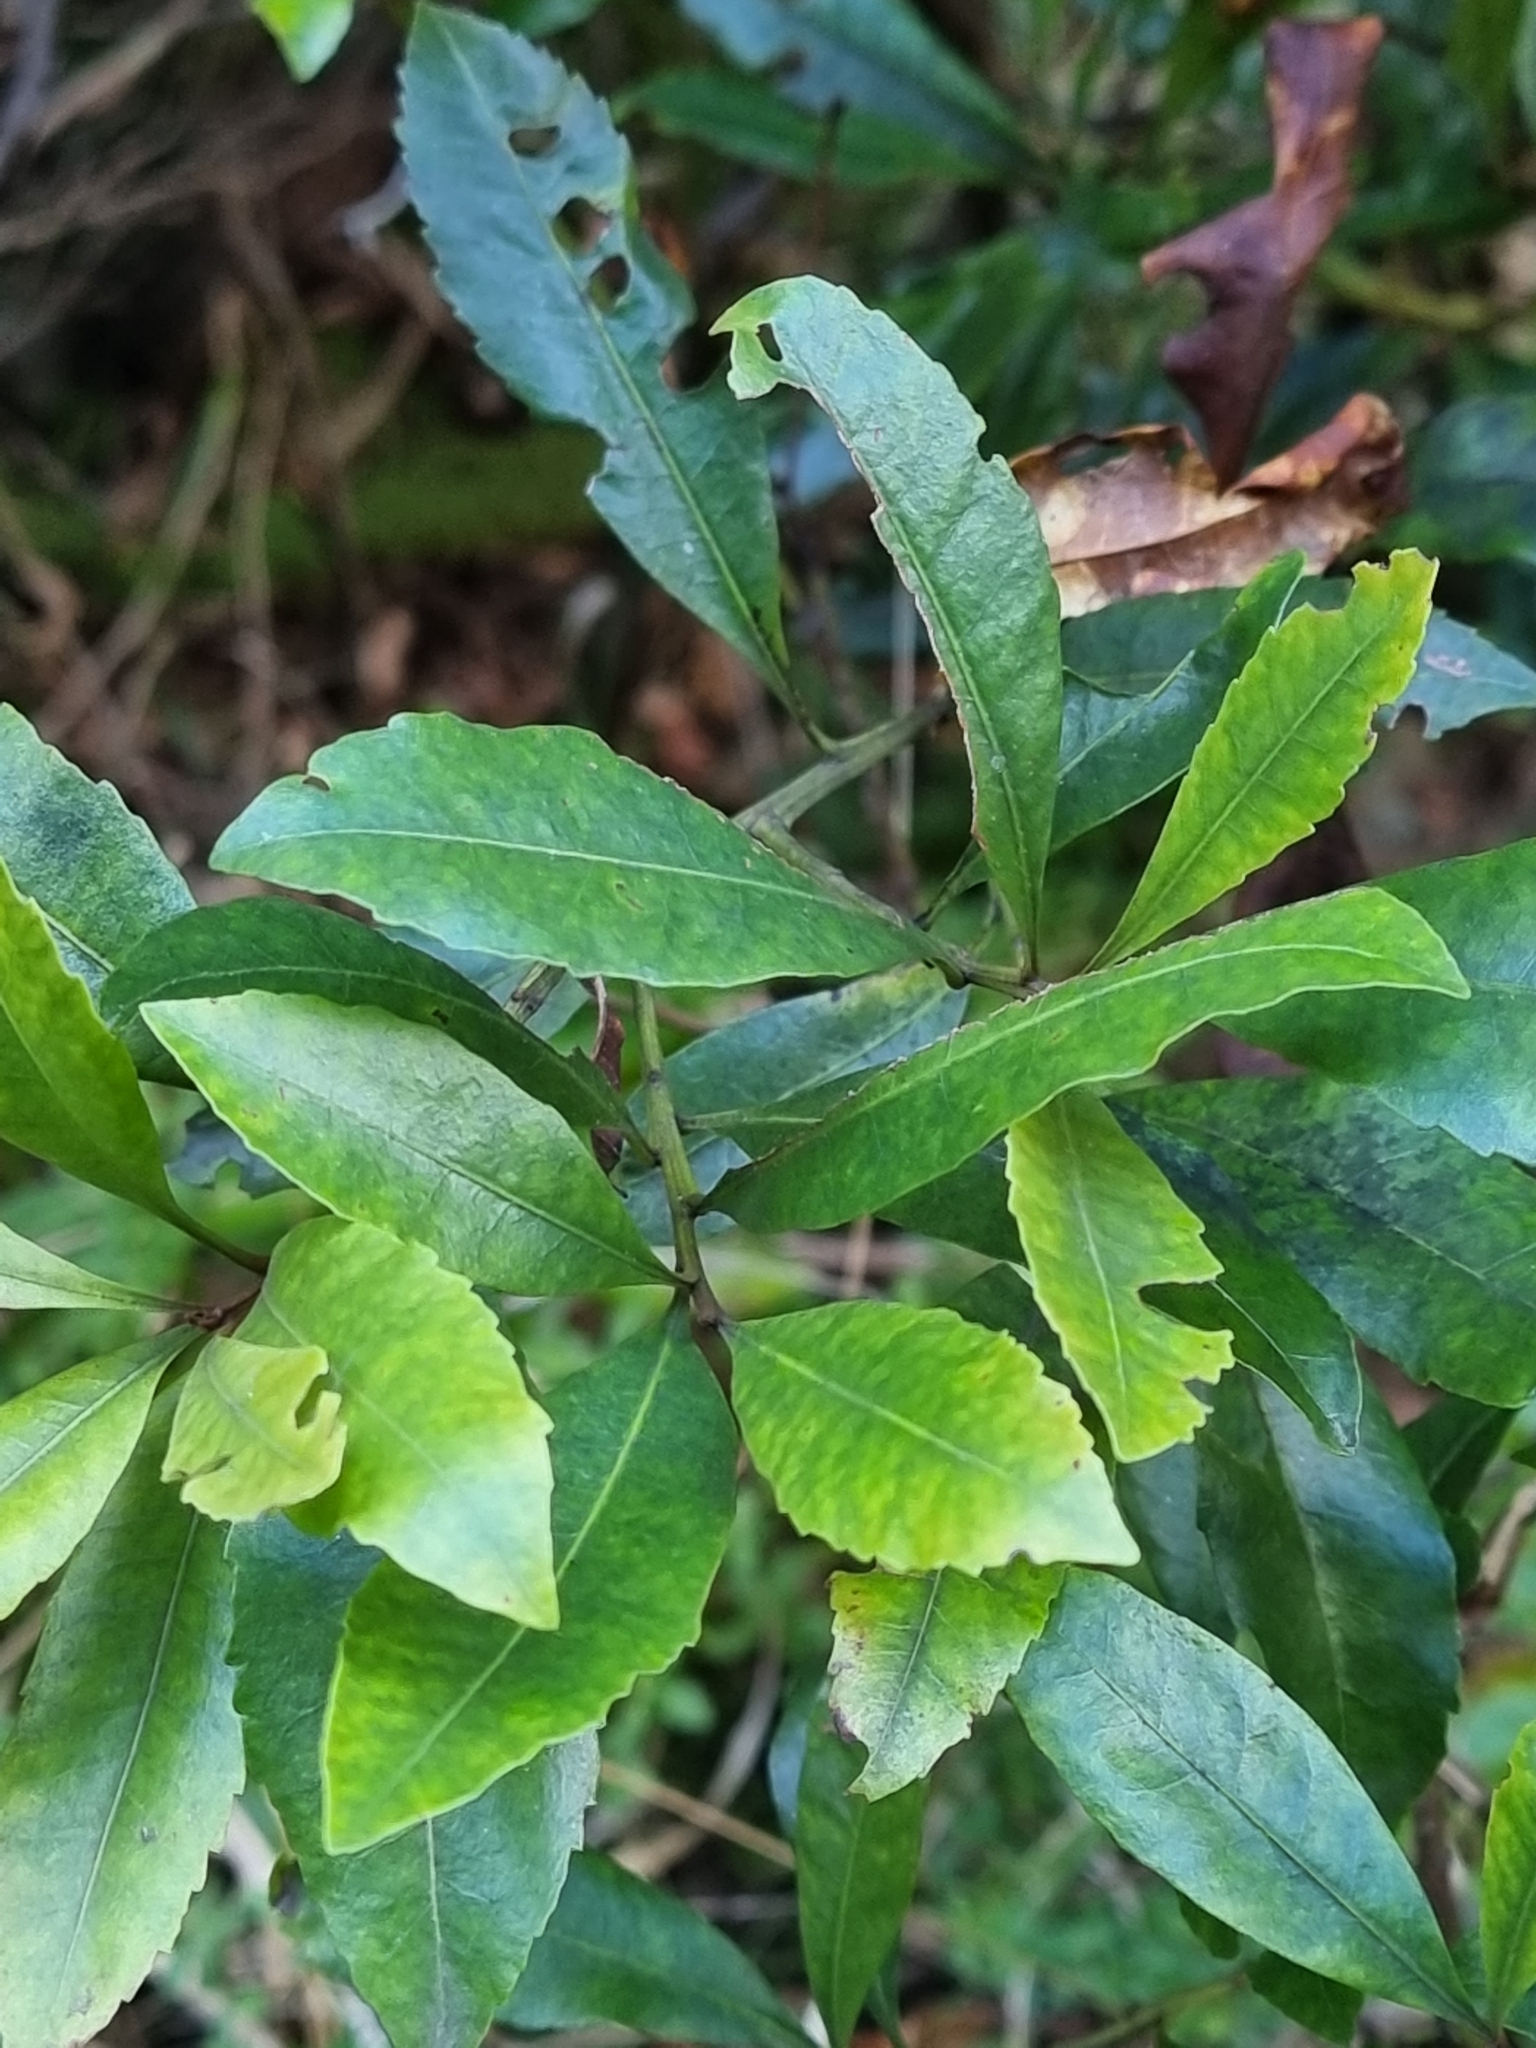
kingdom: Plantae
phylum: Tracheophyta
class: Magnoliopsida
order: Fagales
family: Myricaceae
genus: Morella
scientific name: Morella faya
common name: Firetree
